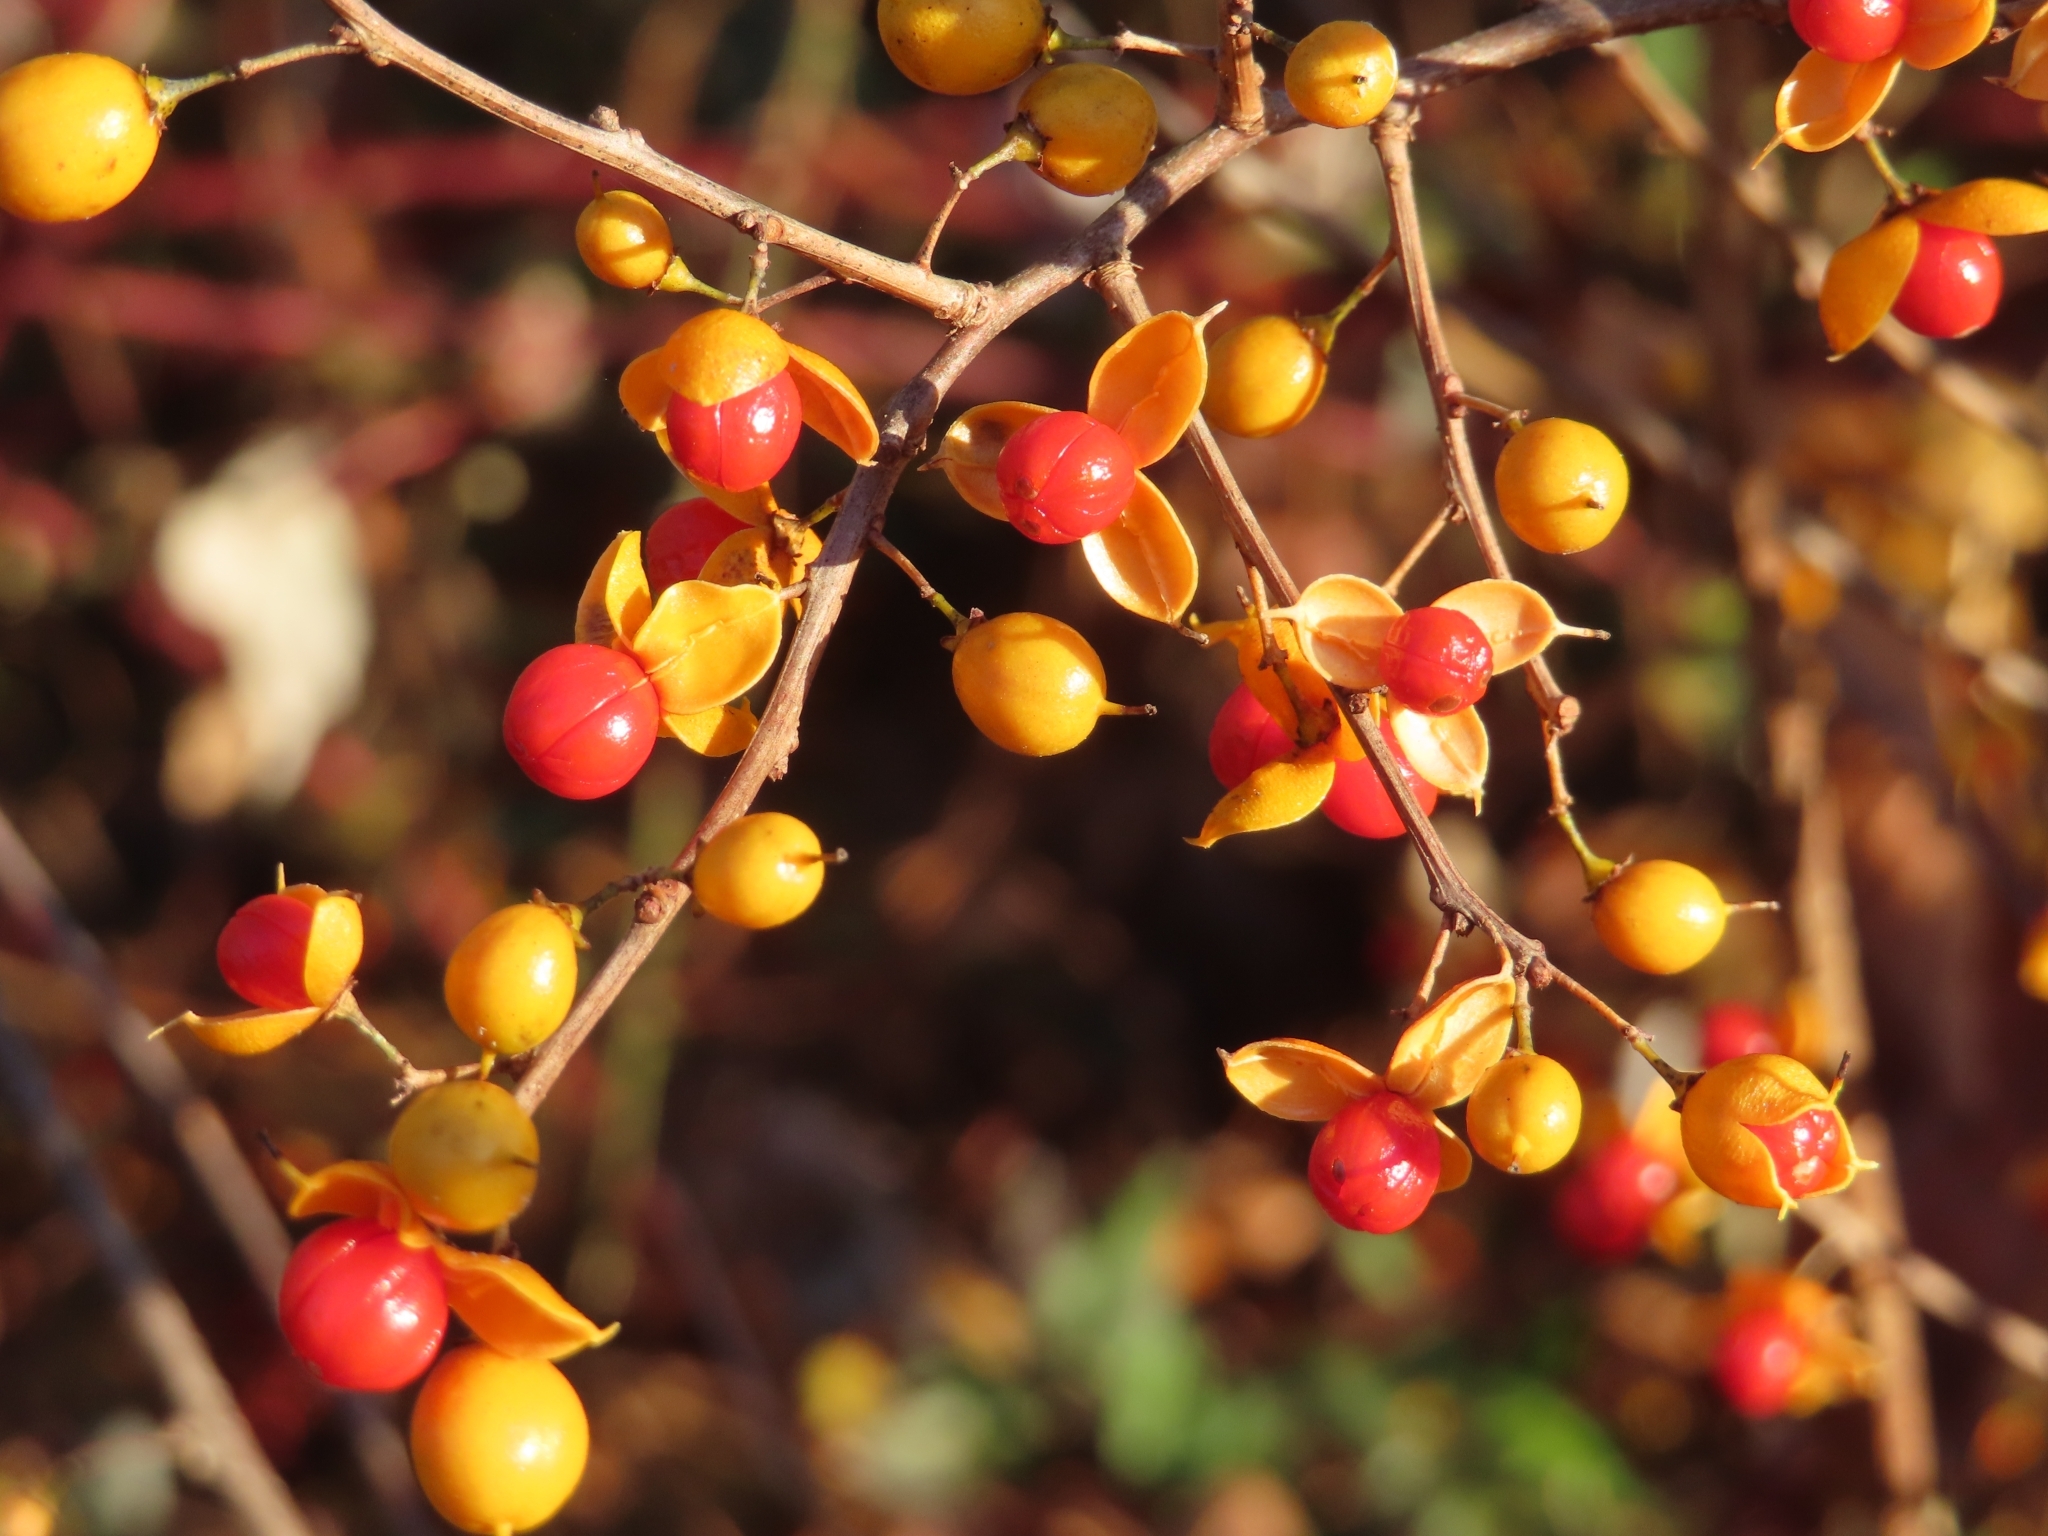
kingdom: Plantae
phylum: Tracheophyta
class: Magnoliopsida
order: Celastrales
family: Celastraceae
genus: Celastrus
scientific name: Celastrus orbiculatus
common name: Oriental bittersweet
